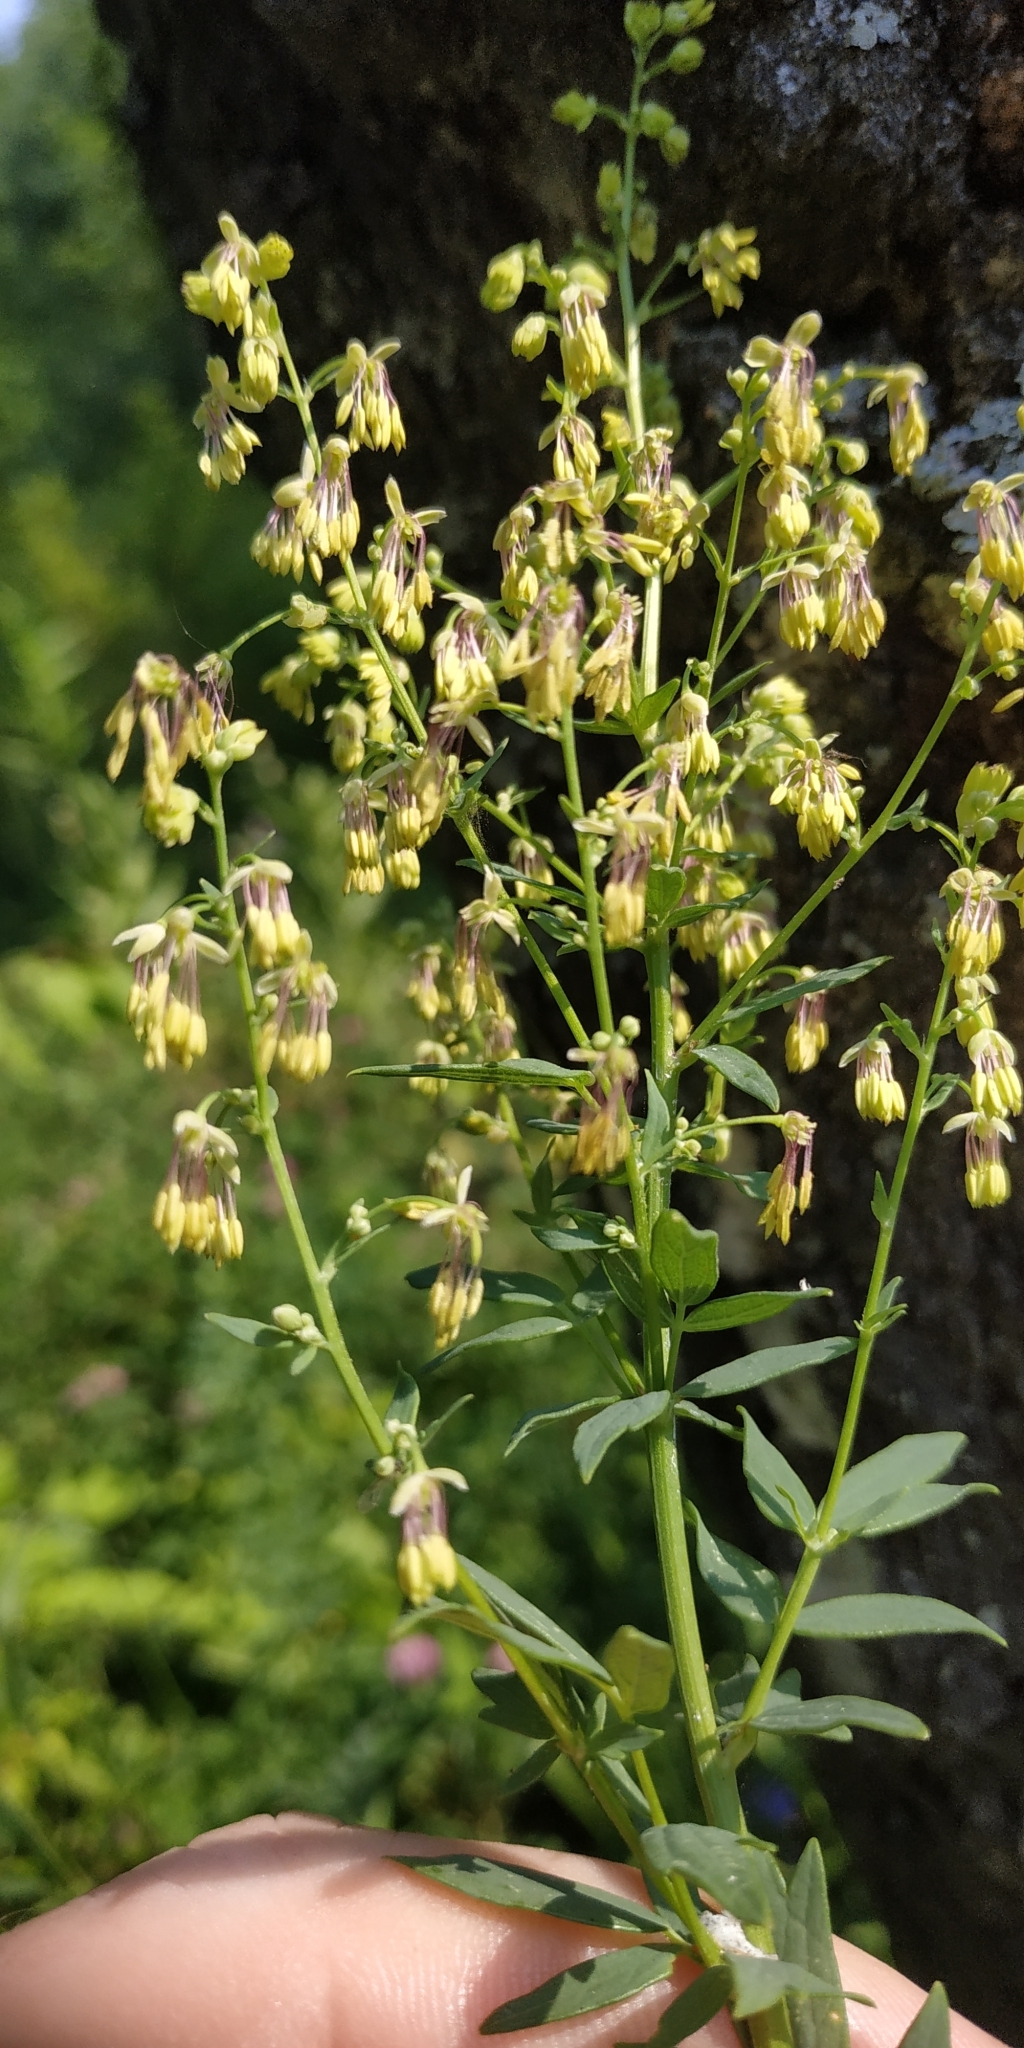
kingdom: Plantae
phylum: Tracheophyta
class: Magnoliopsida
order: Ranunculales
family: Ranunculaceae
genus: Thalictrum
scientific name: Thalictrum simplex
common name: Small meadow-rue
